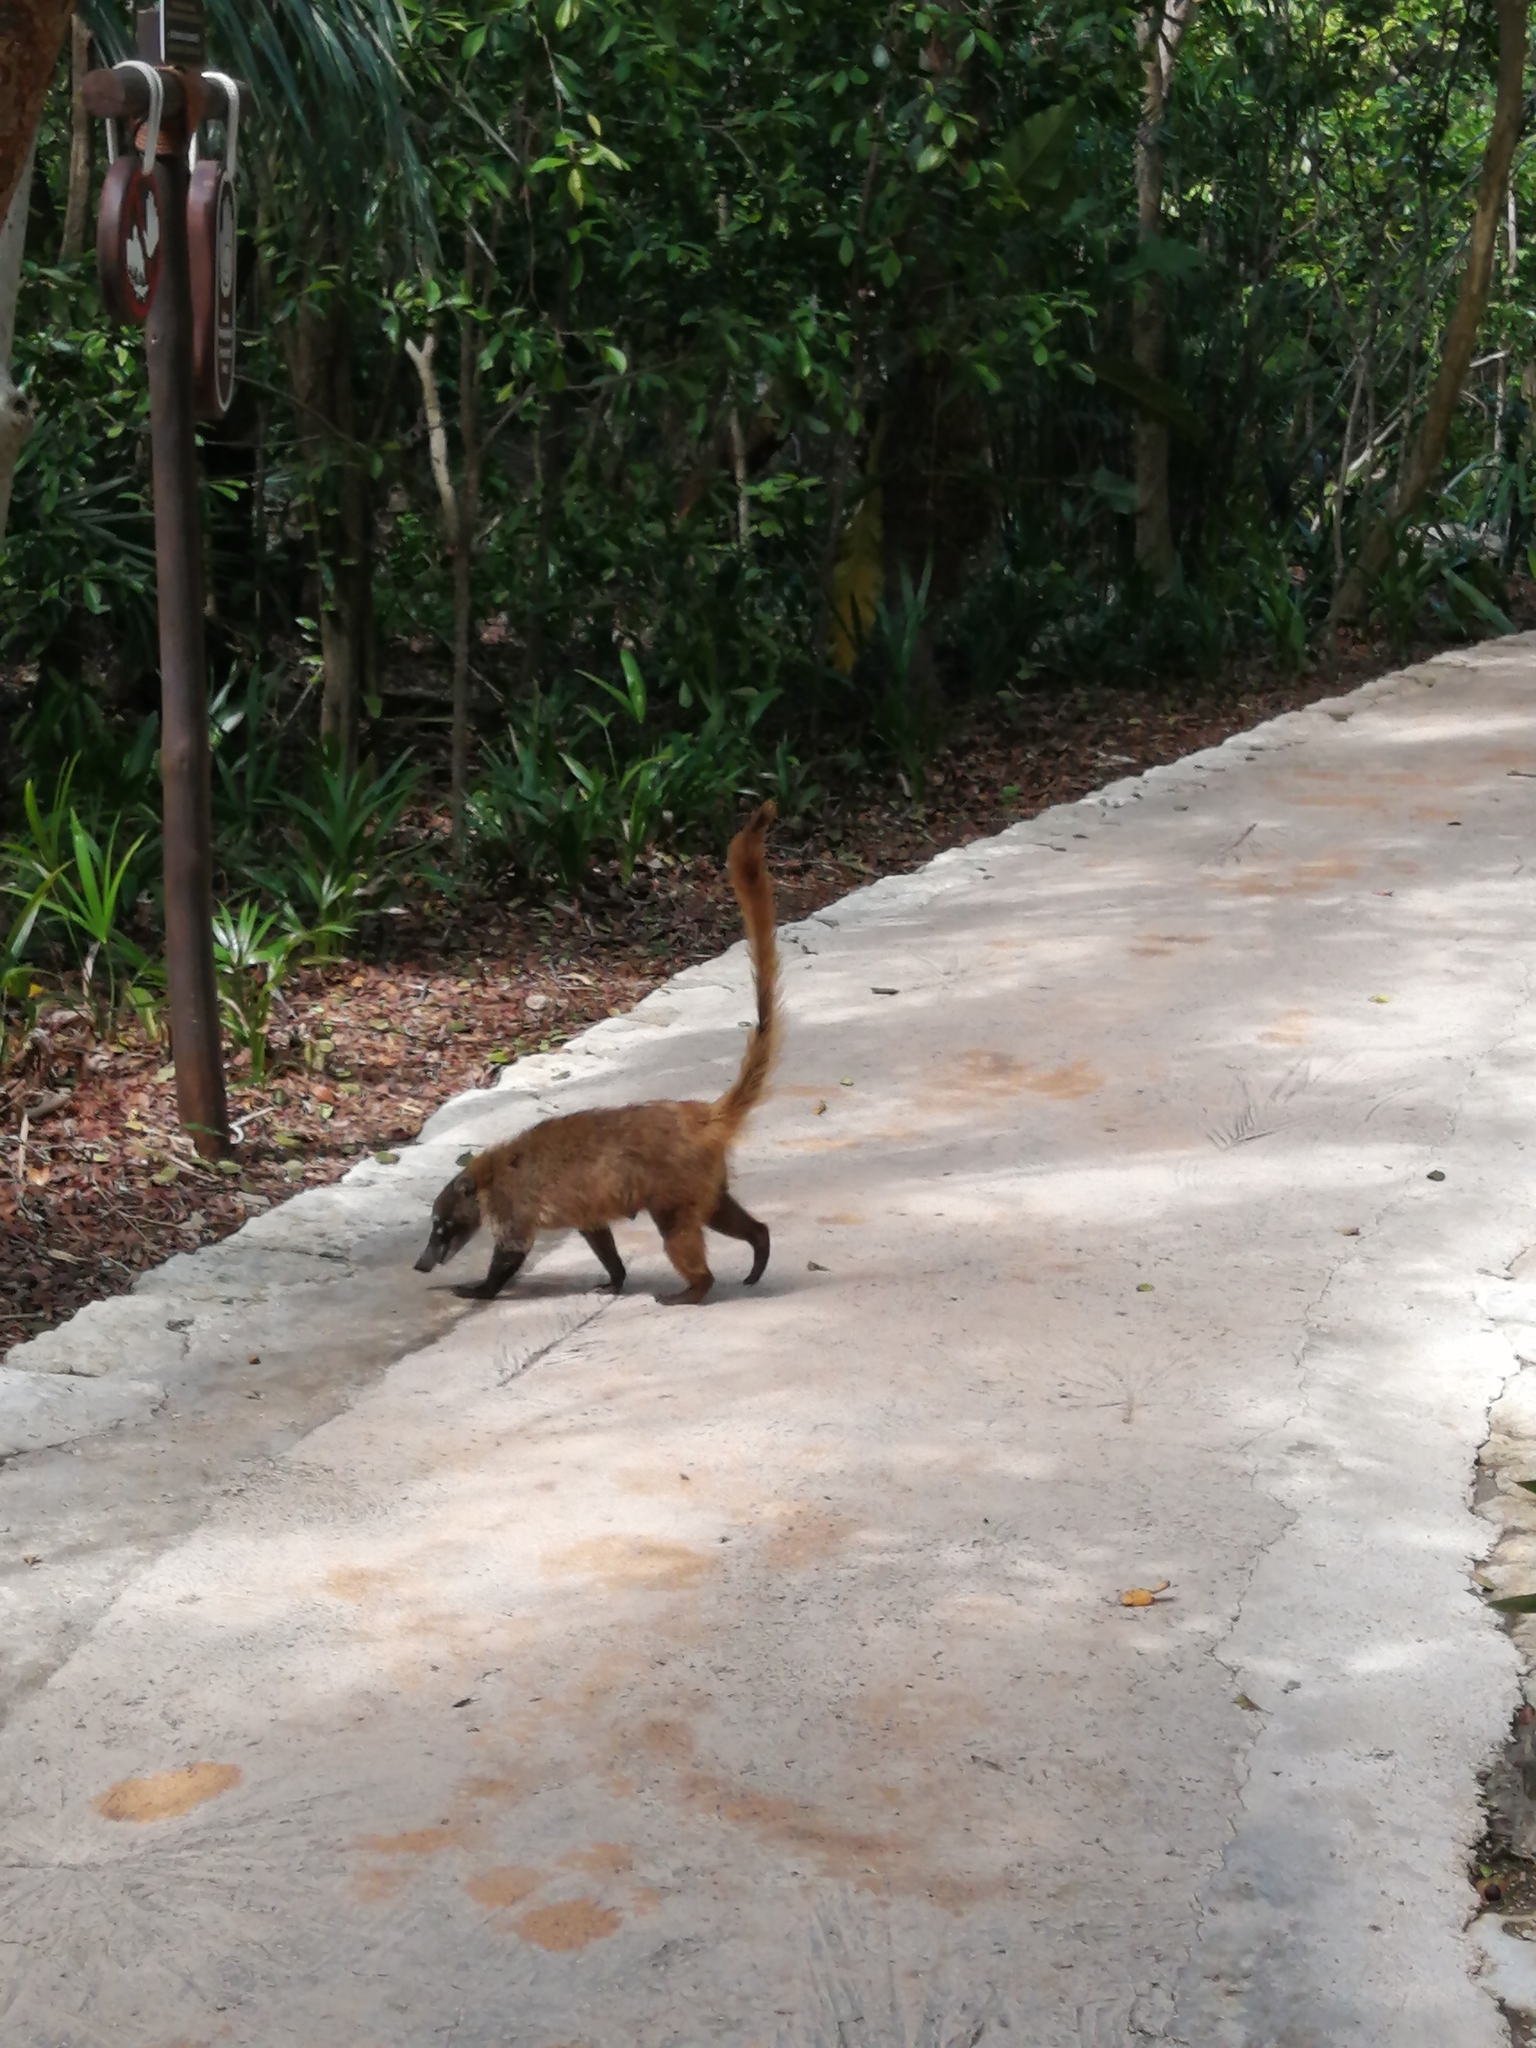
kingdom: Animalia
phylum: Chordata
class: Mammalia
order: Carnivora
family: Procyonidae
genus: Nasua
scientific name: Nasua narica
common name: White-nosed coati
